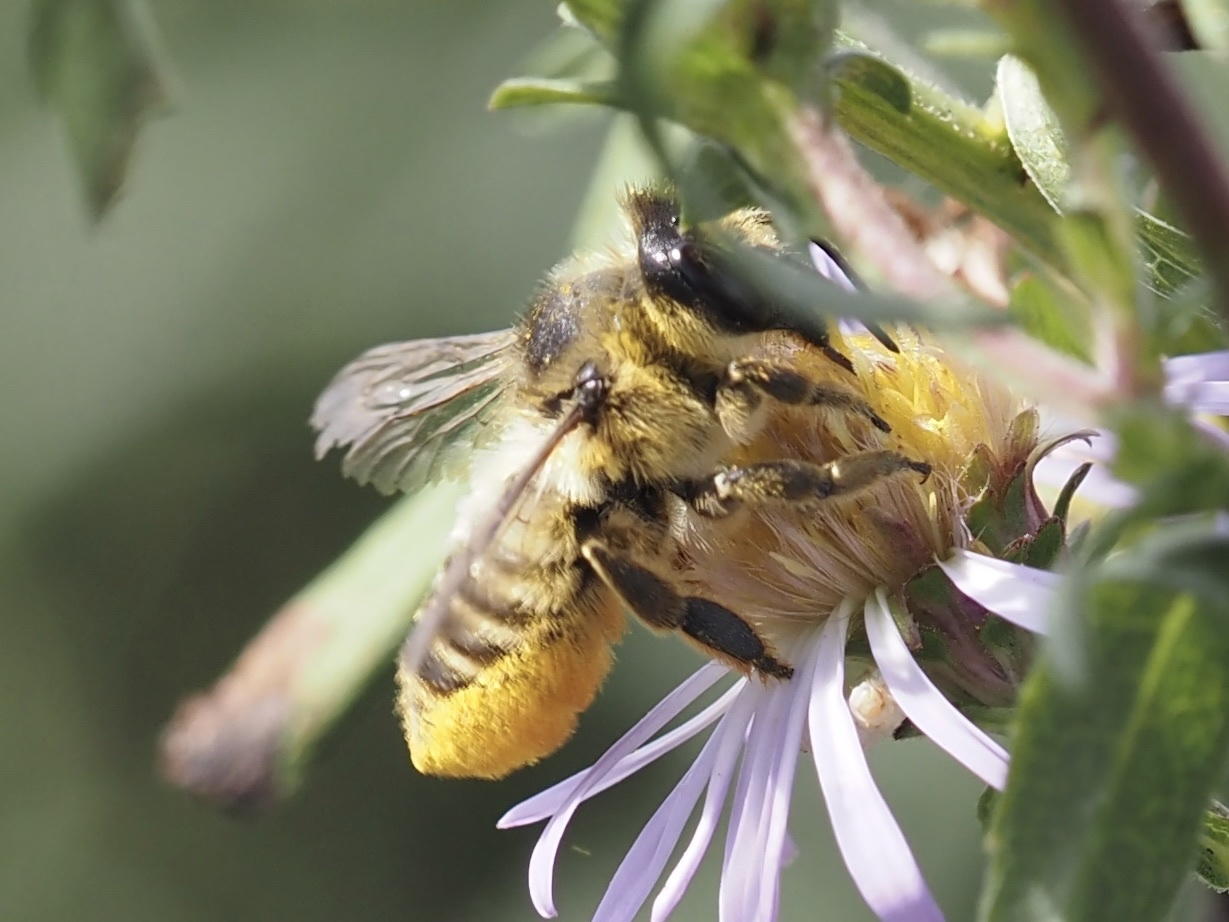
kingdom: Animalia
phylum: Arthropoda
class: Insecta
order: Hymenoptera
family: Megachilidae
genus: Megachile
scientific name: Megachile perihirta
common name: Western leafcutter
